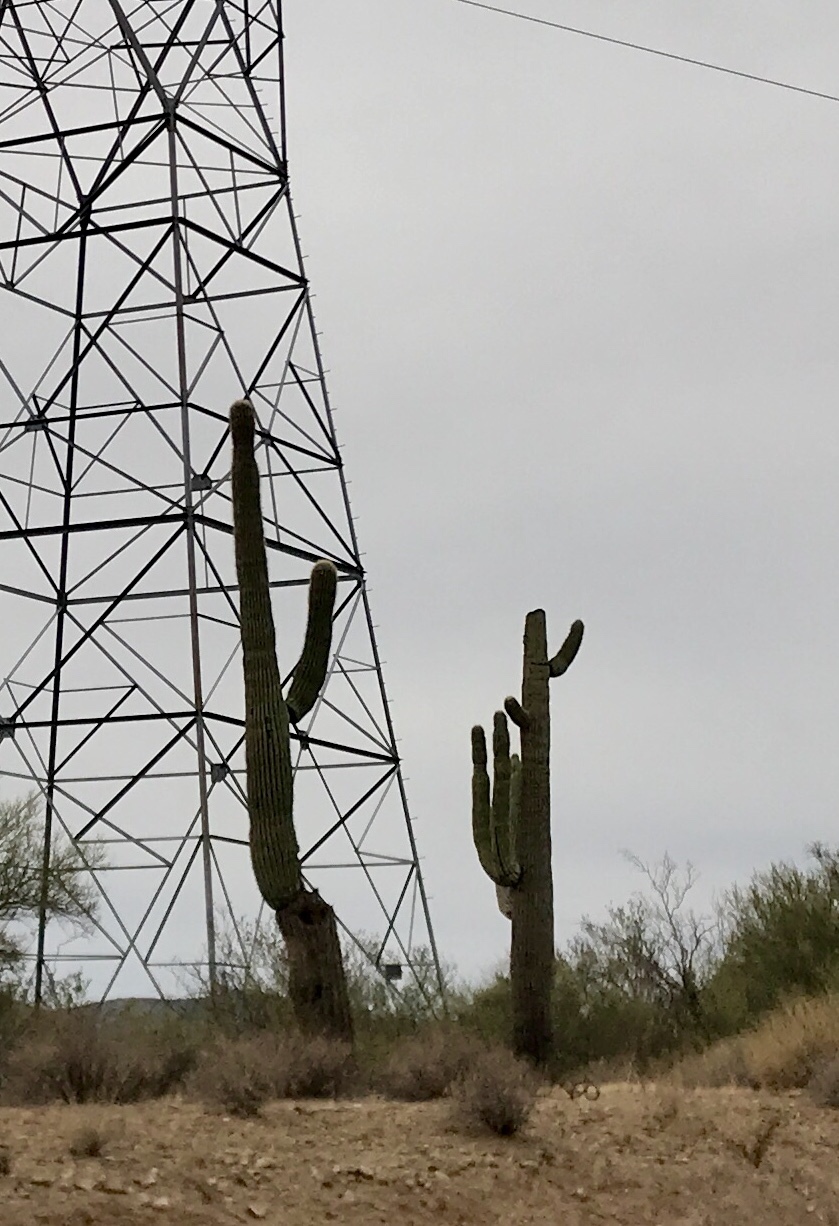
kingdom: Plantae
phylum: Tracheophyta
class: Magnoliopsida
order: Caryophyllales
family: Cactaceae
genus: Carnegiea
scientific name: Carnegiea gigantea
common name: Saguaro
